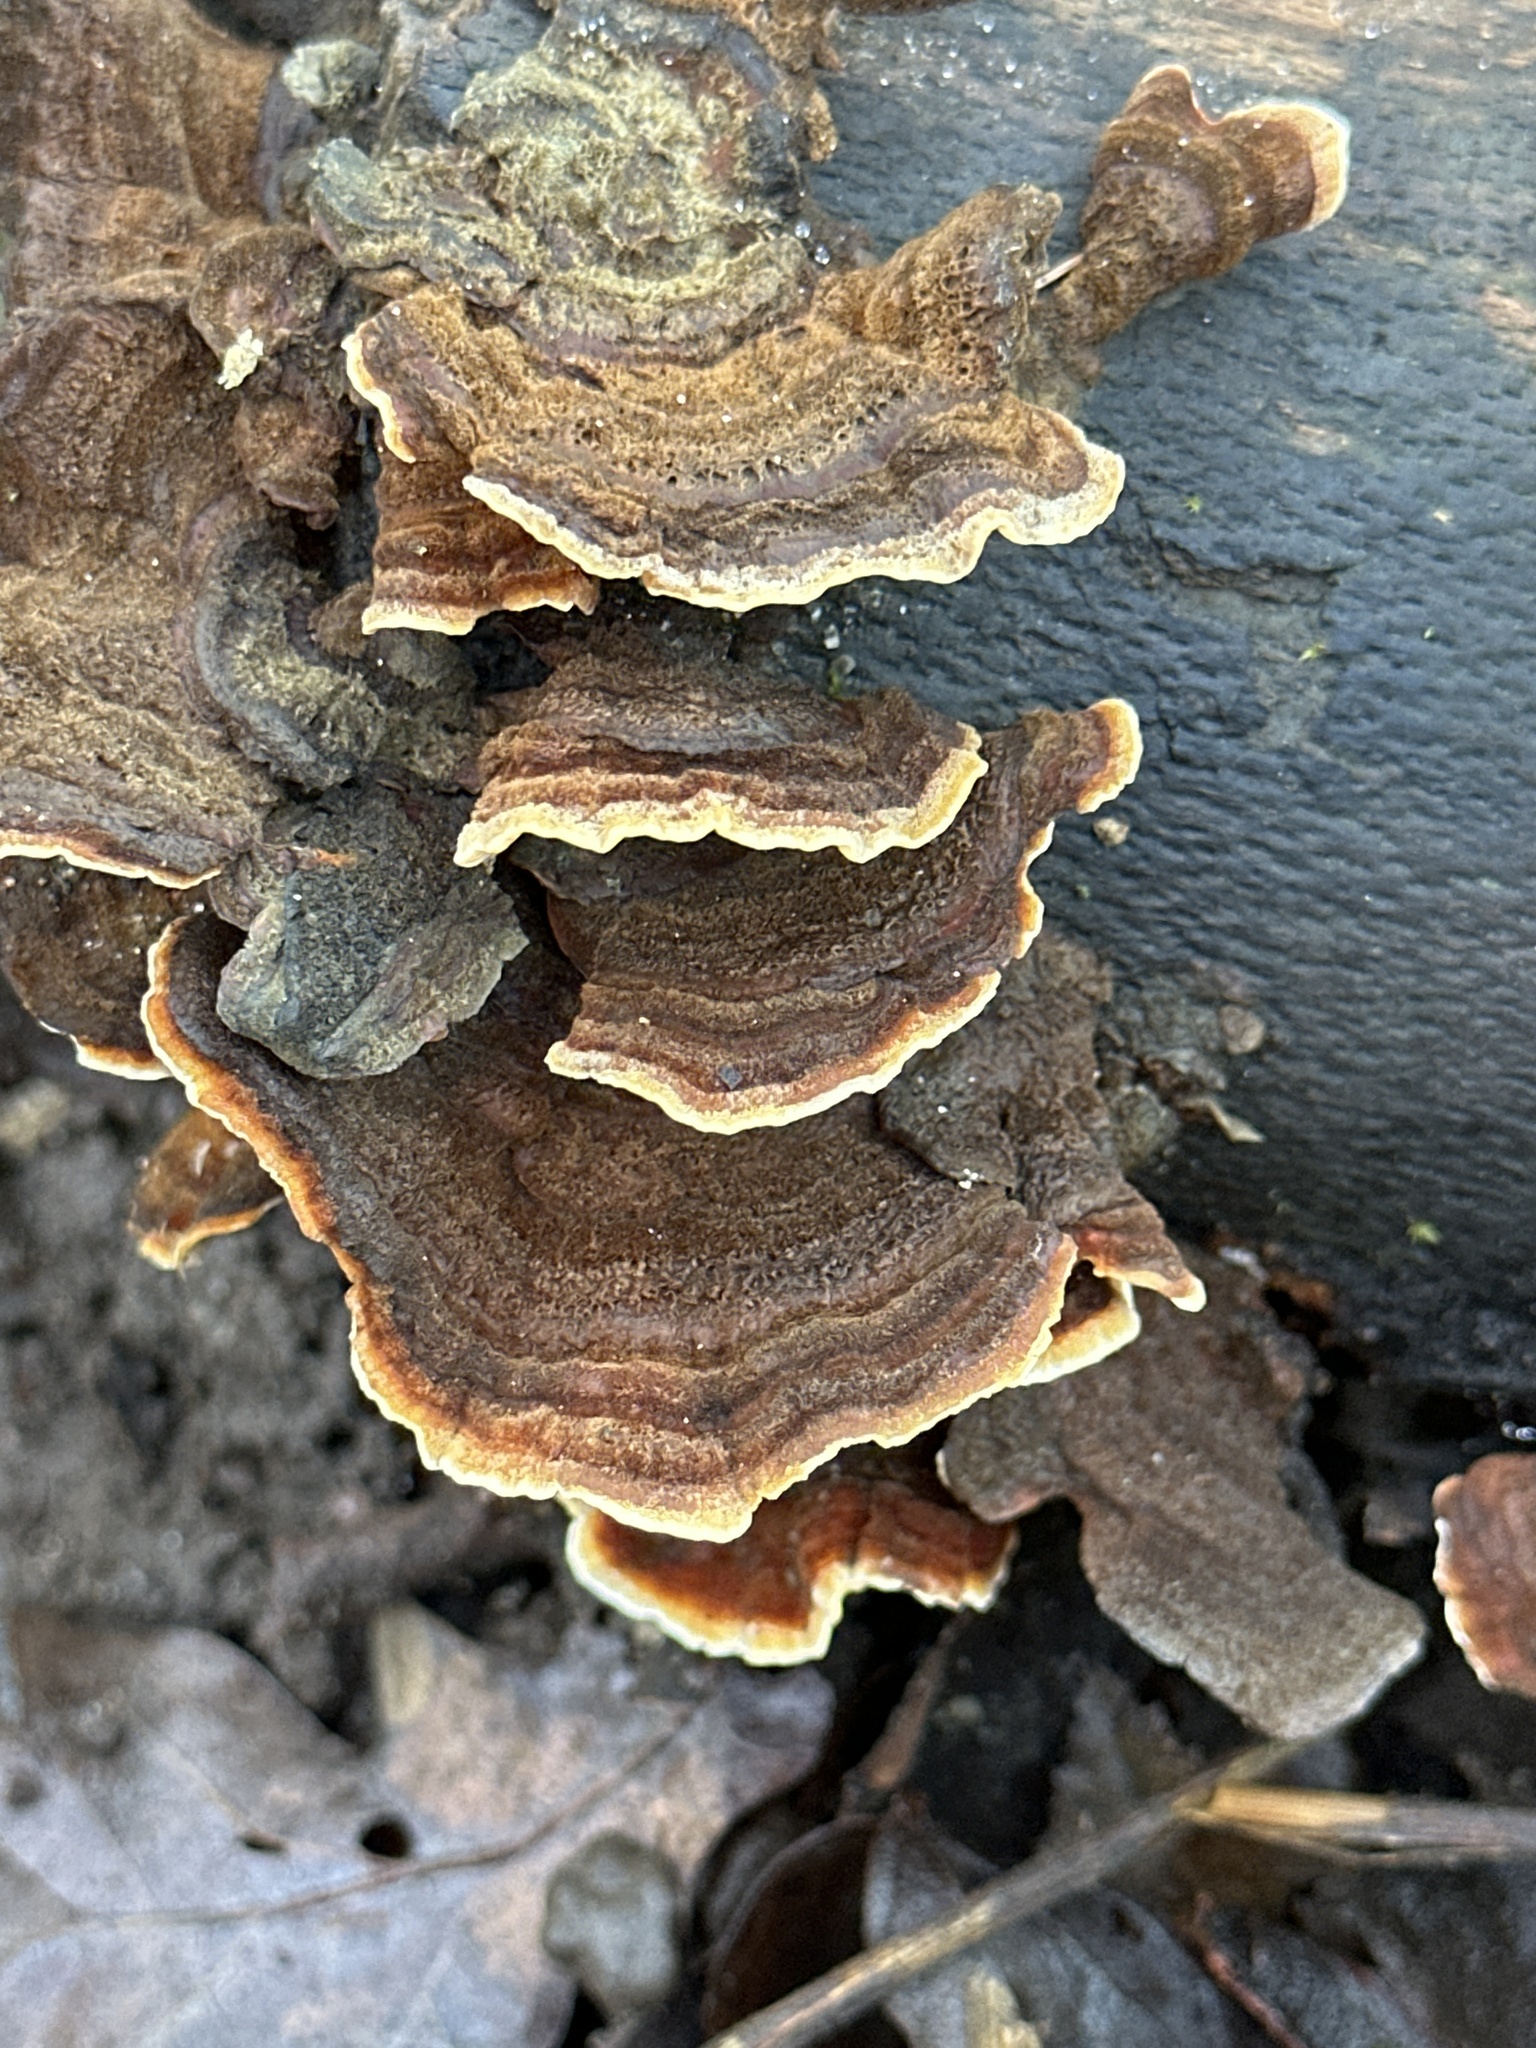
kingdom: Fungi
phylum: Basidiomycota
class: Agaricomycetes
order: Russulales
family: Stereaceae
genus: Stereum
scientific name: Stereum hirsutum
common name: Hairy curtain crust
